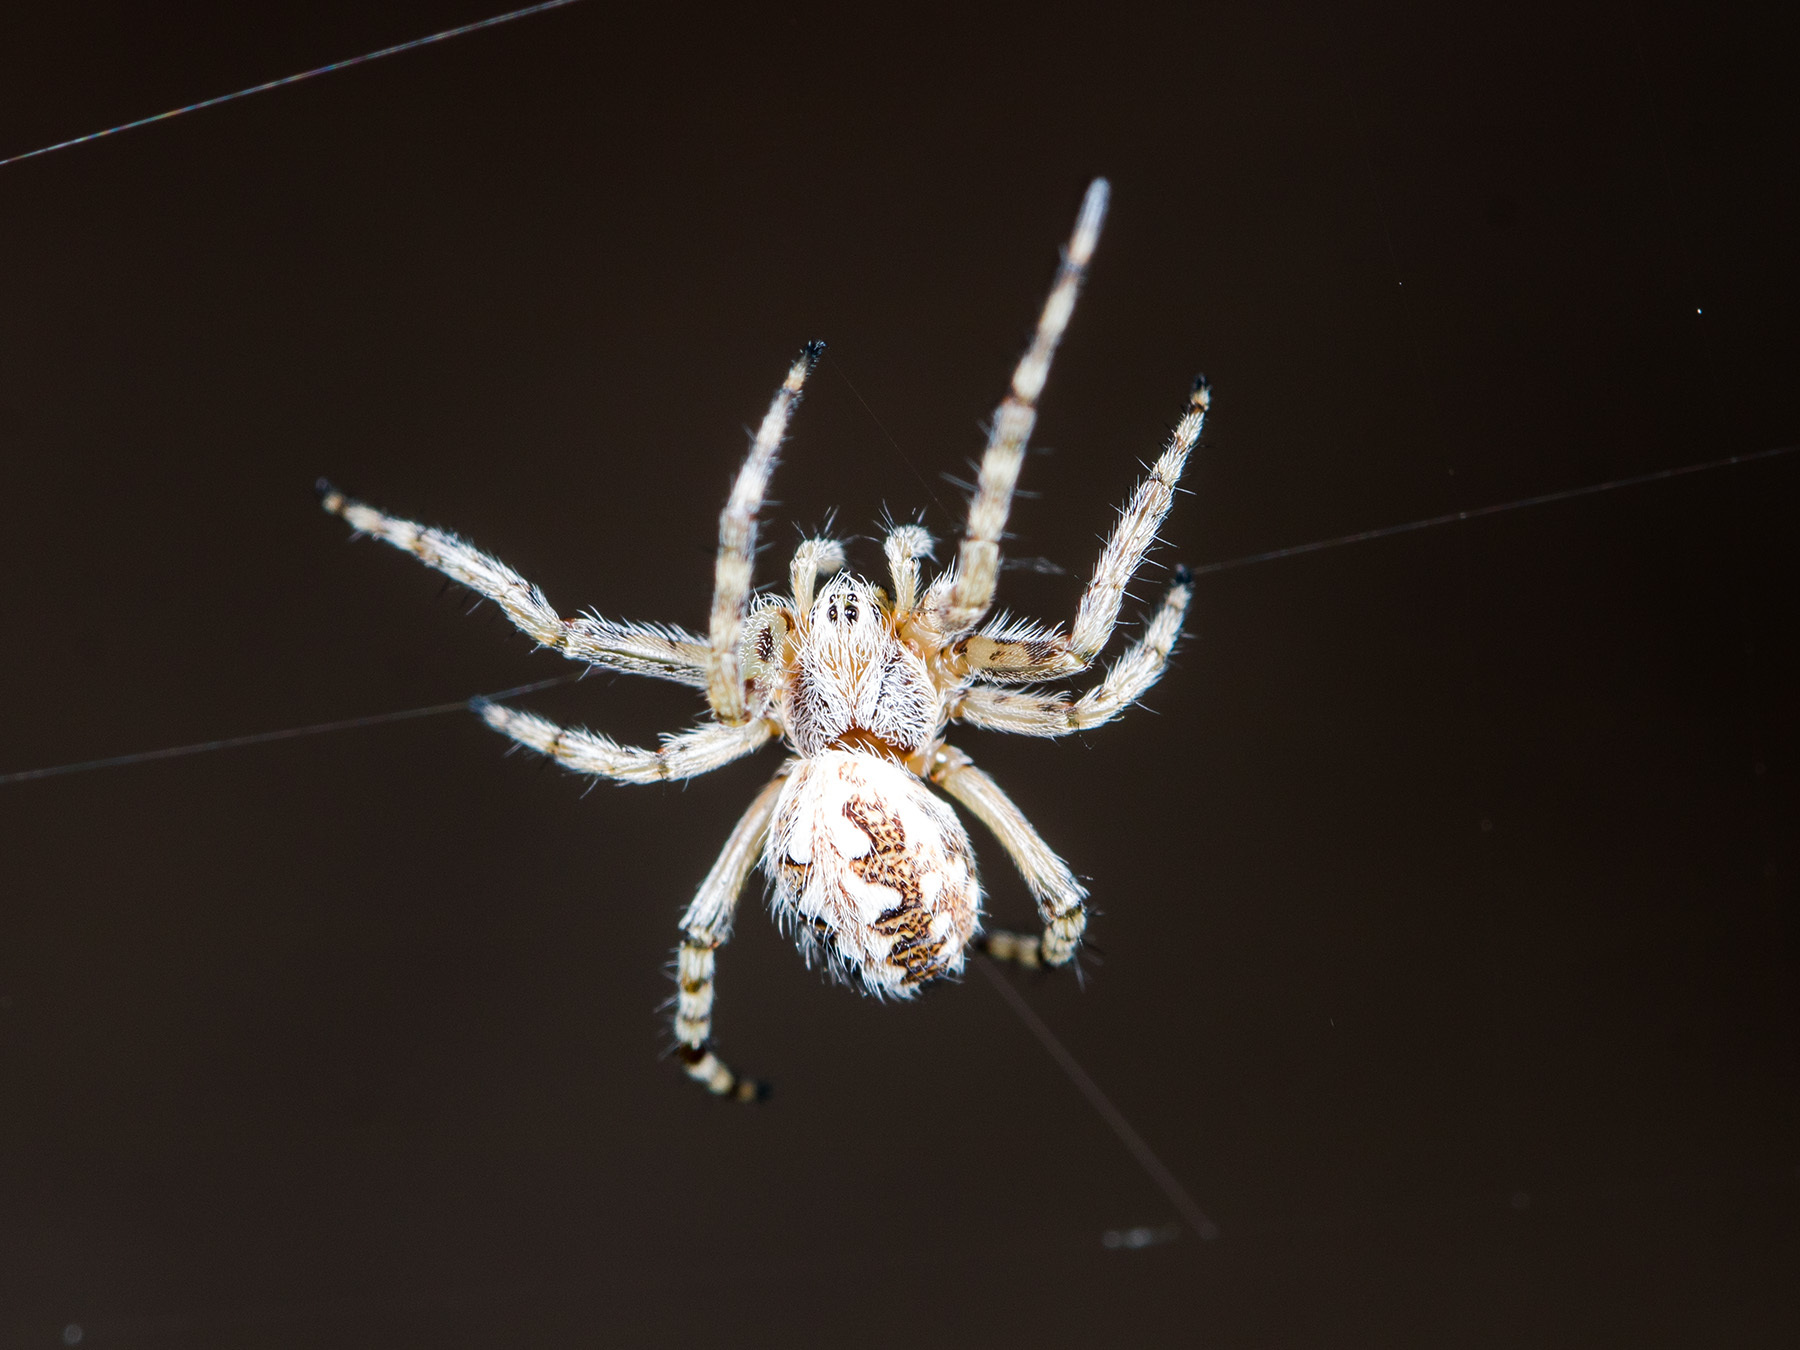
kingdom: Animalia
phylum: Arthropoda
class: Arachnida
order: Araneae
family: Araneidae
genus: Aculepeira
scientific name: Aculepeira armida
